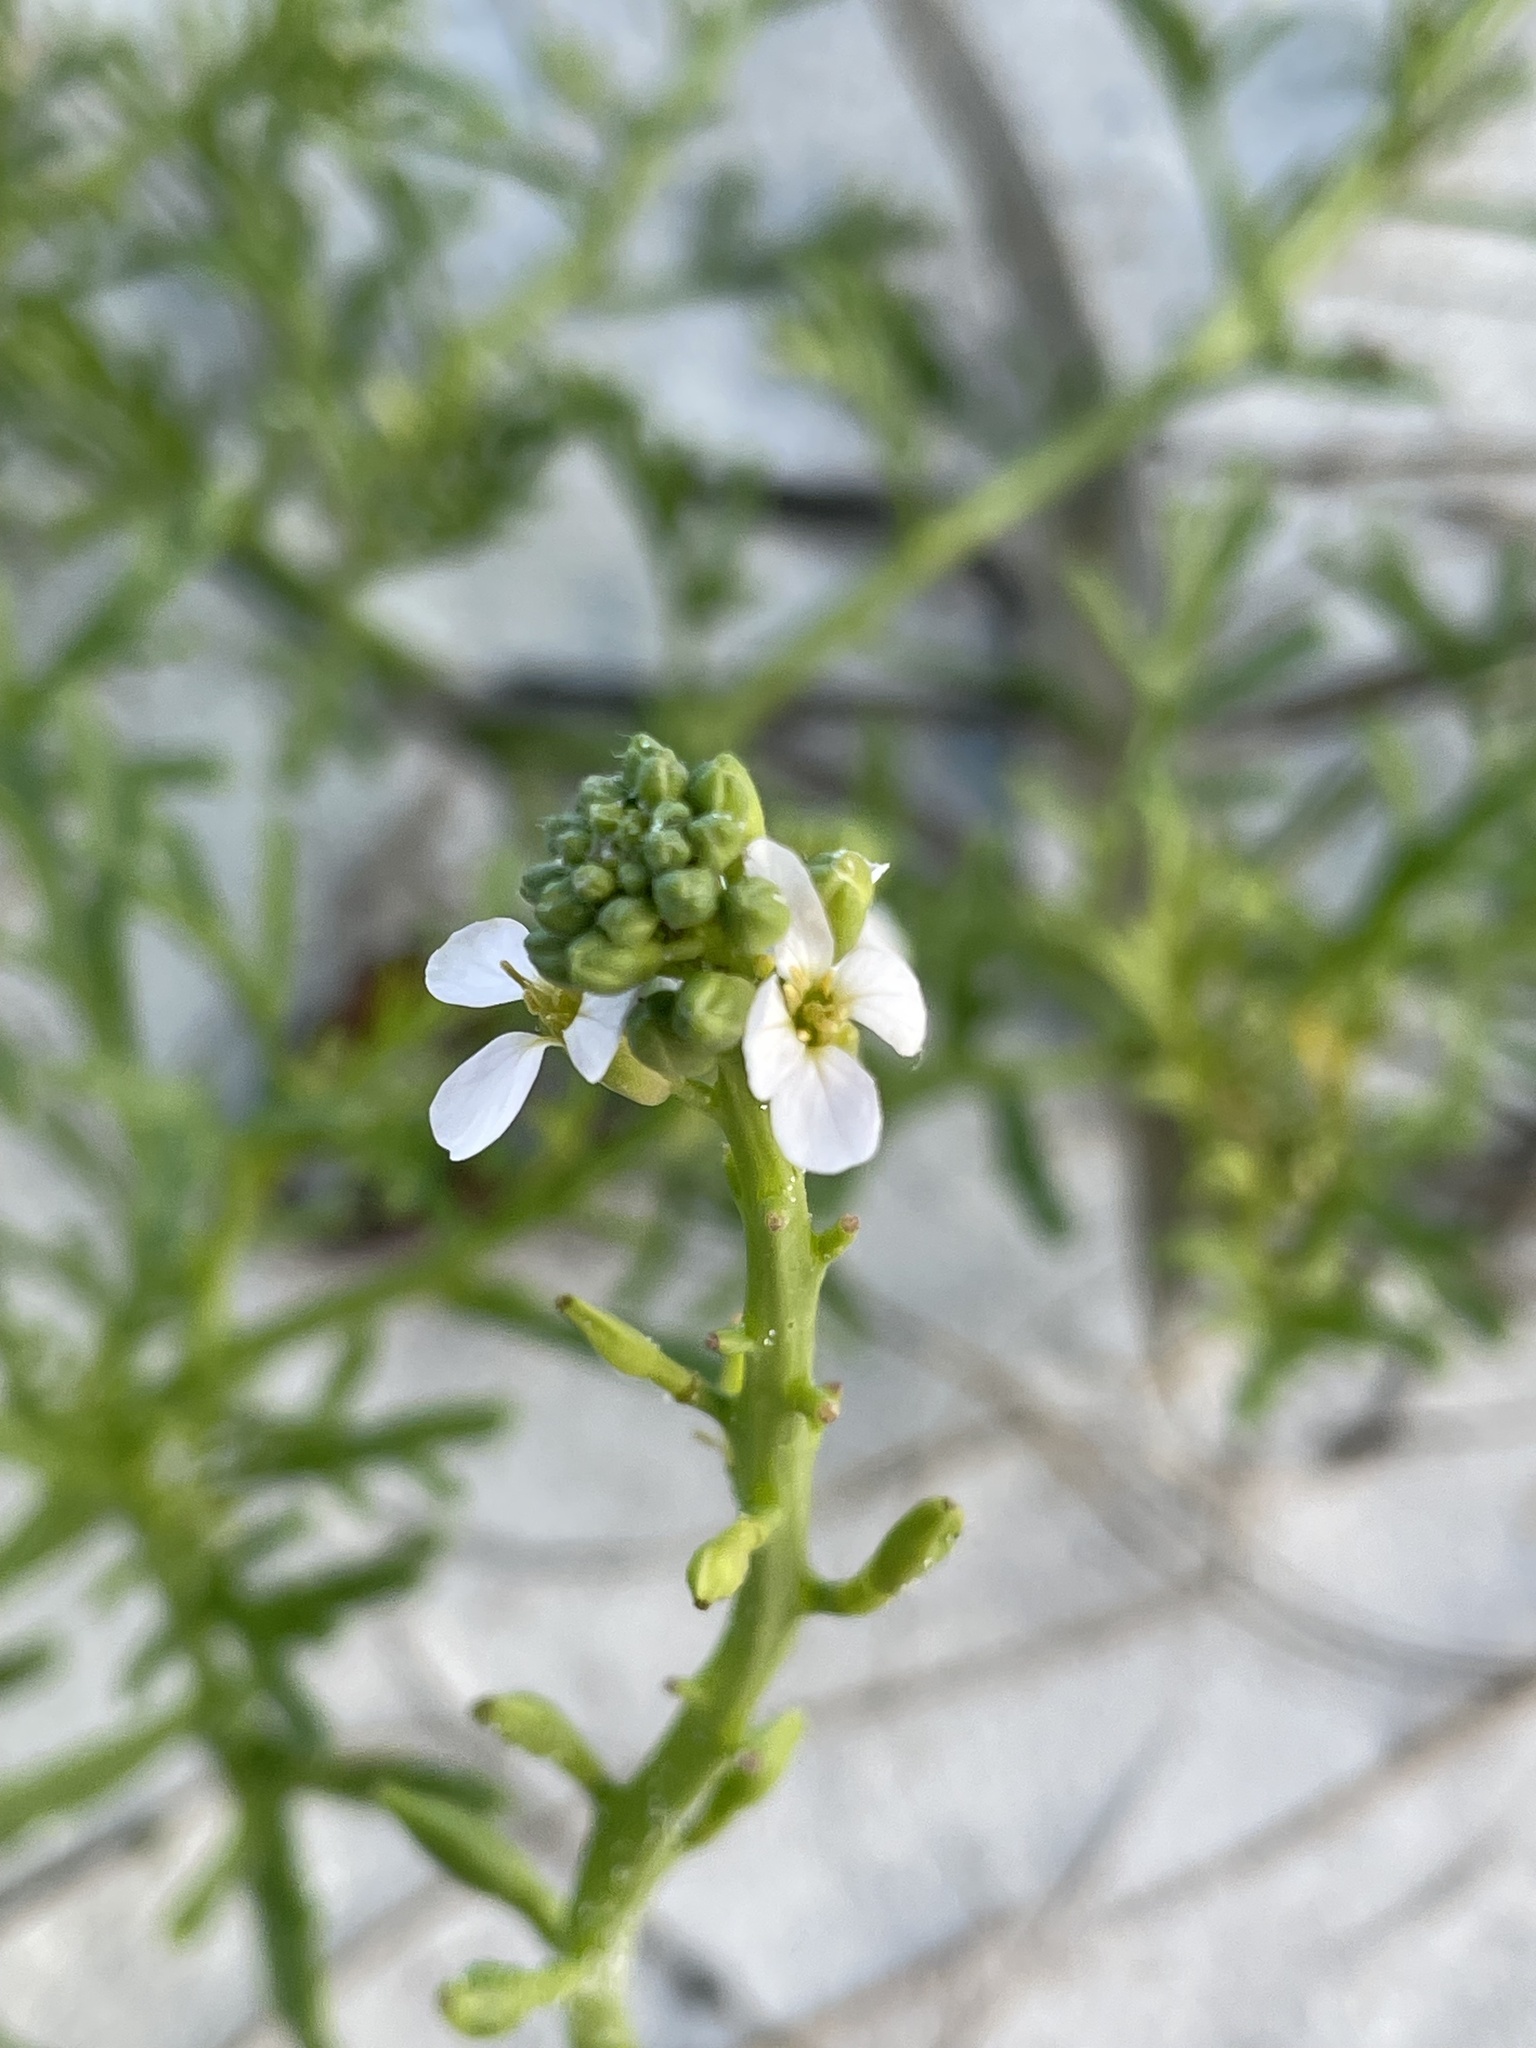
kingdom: Plantae
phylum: Tracheophyta
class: Magnoliopsida
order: Brassicales
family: Brassicaceae
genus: Cakile
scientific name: Cakile lanceolata
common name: Sea rocket
